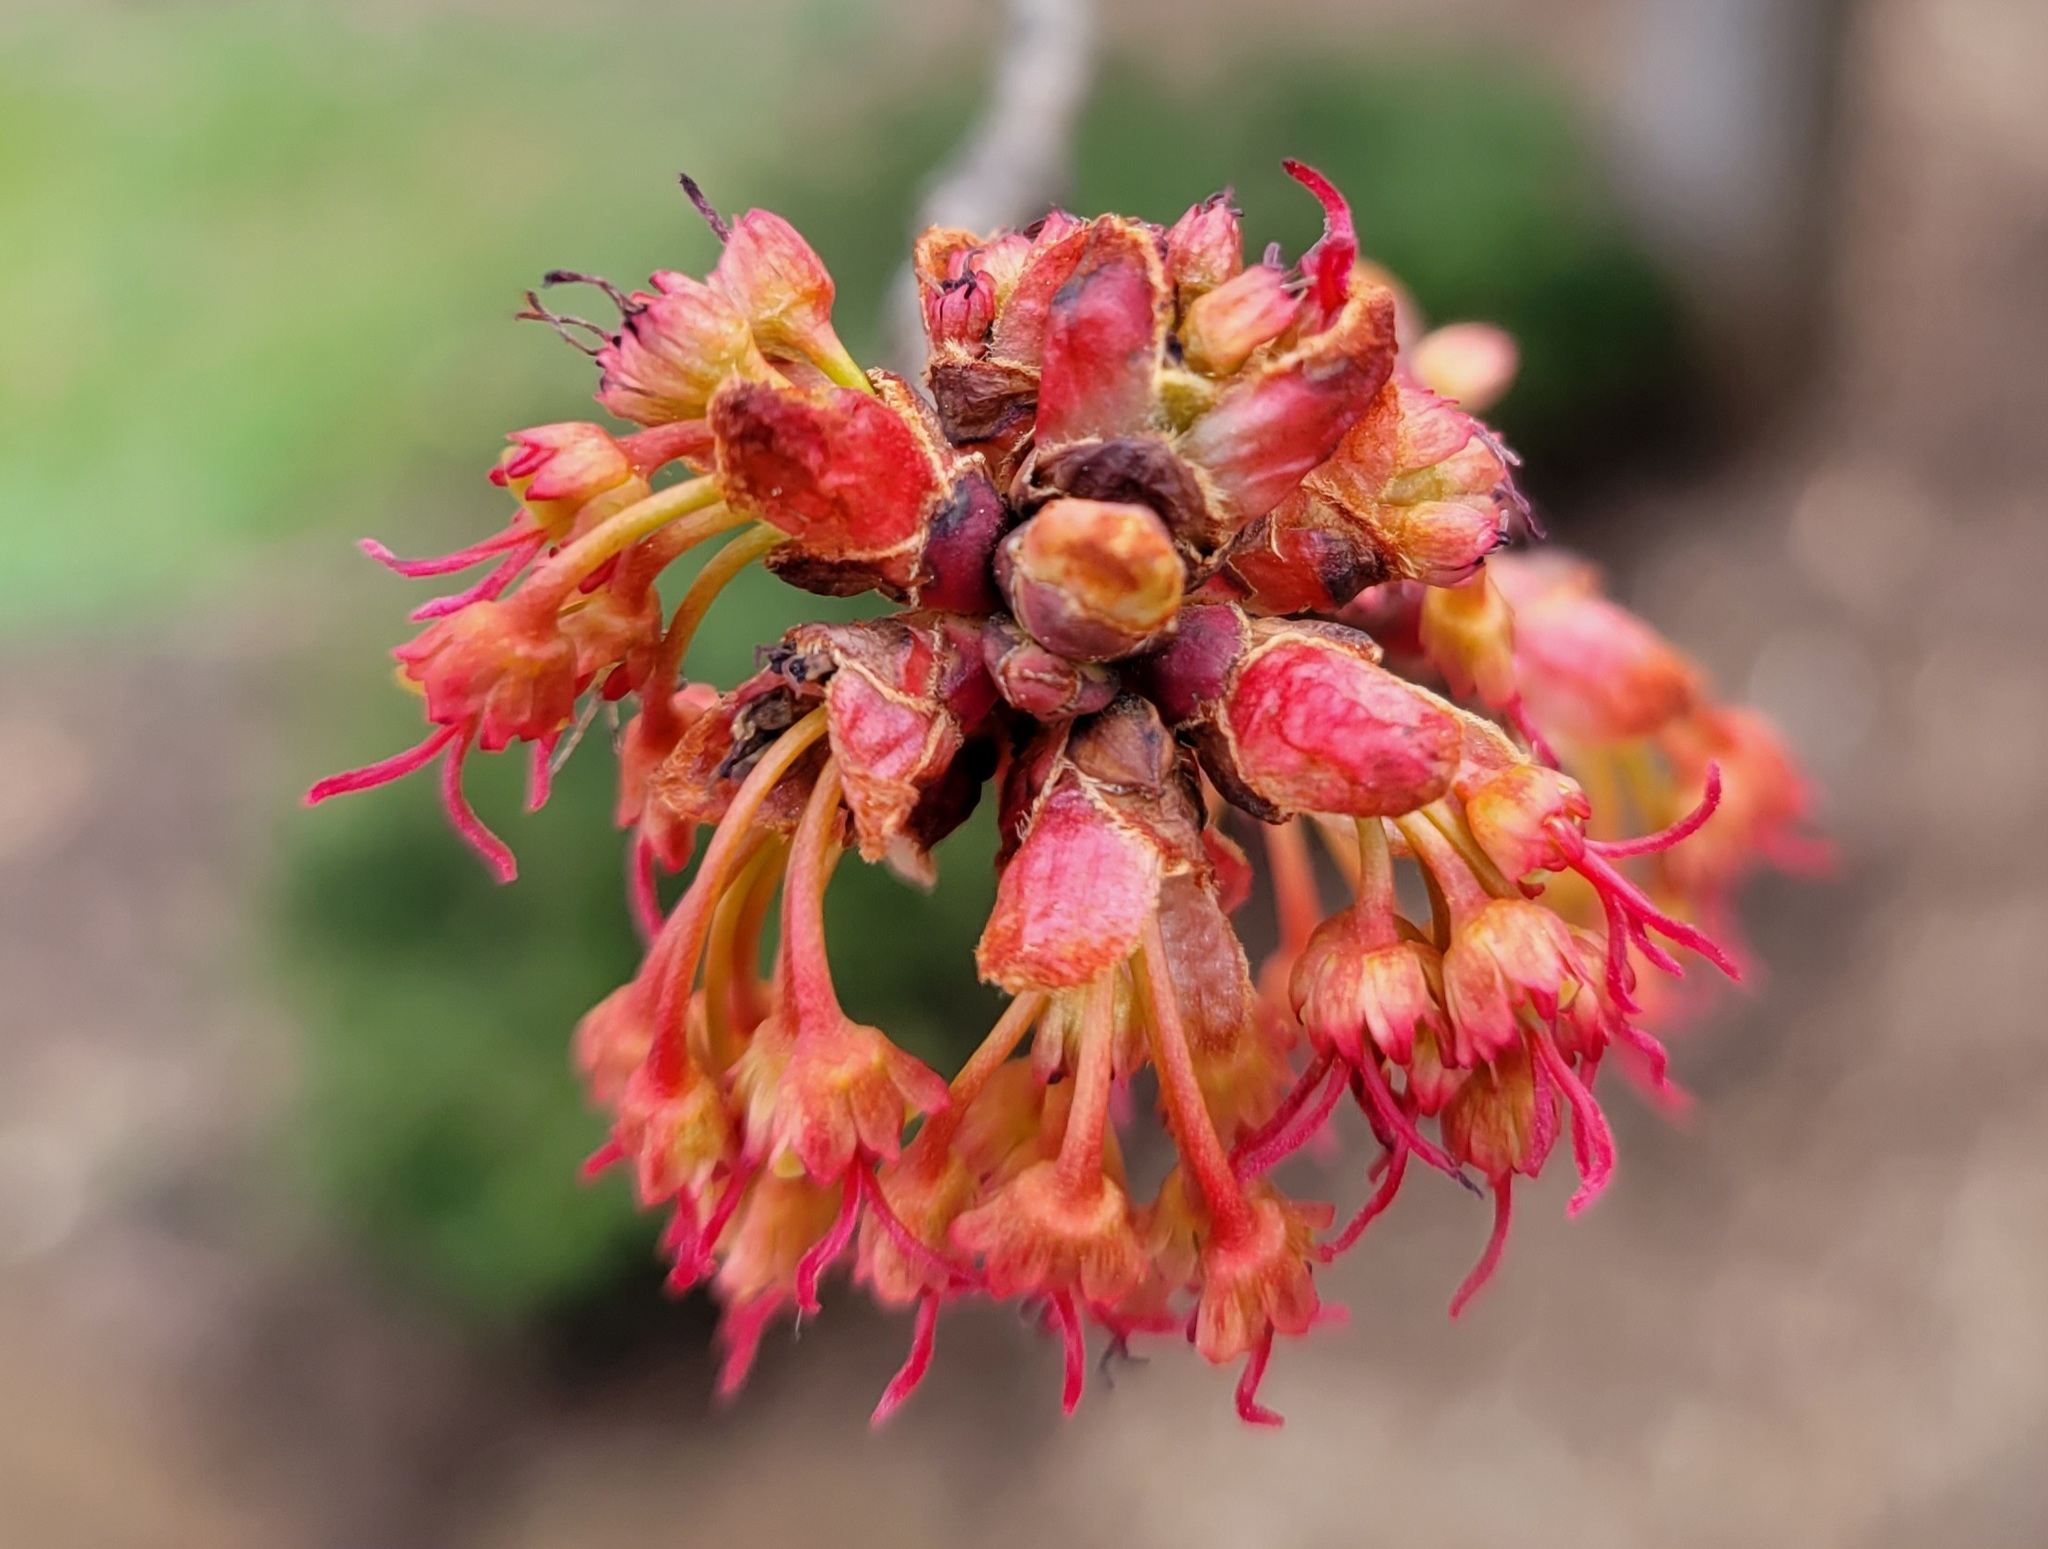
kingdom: Plantae
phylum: Tracheophyta
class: Magnoliopsida
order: Sapindales
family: Sapindaceae
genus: Acer
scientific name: Acer rubrum
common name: Red maple
